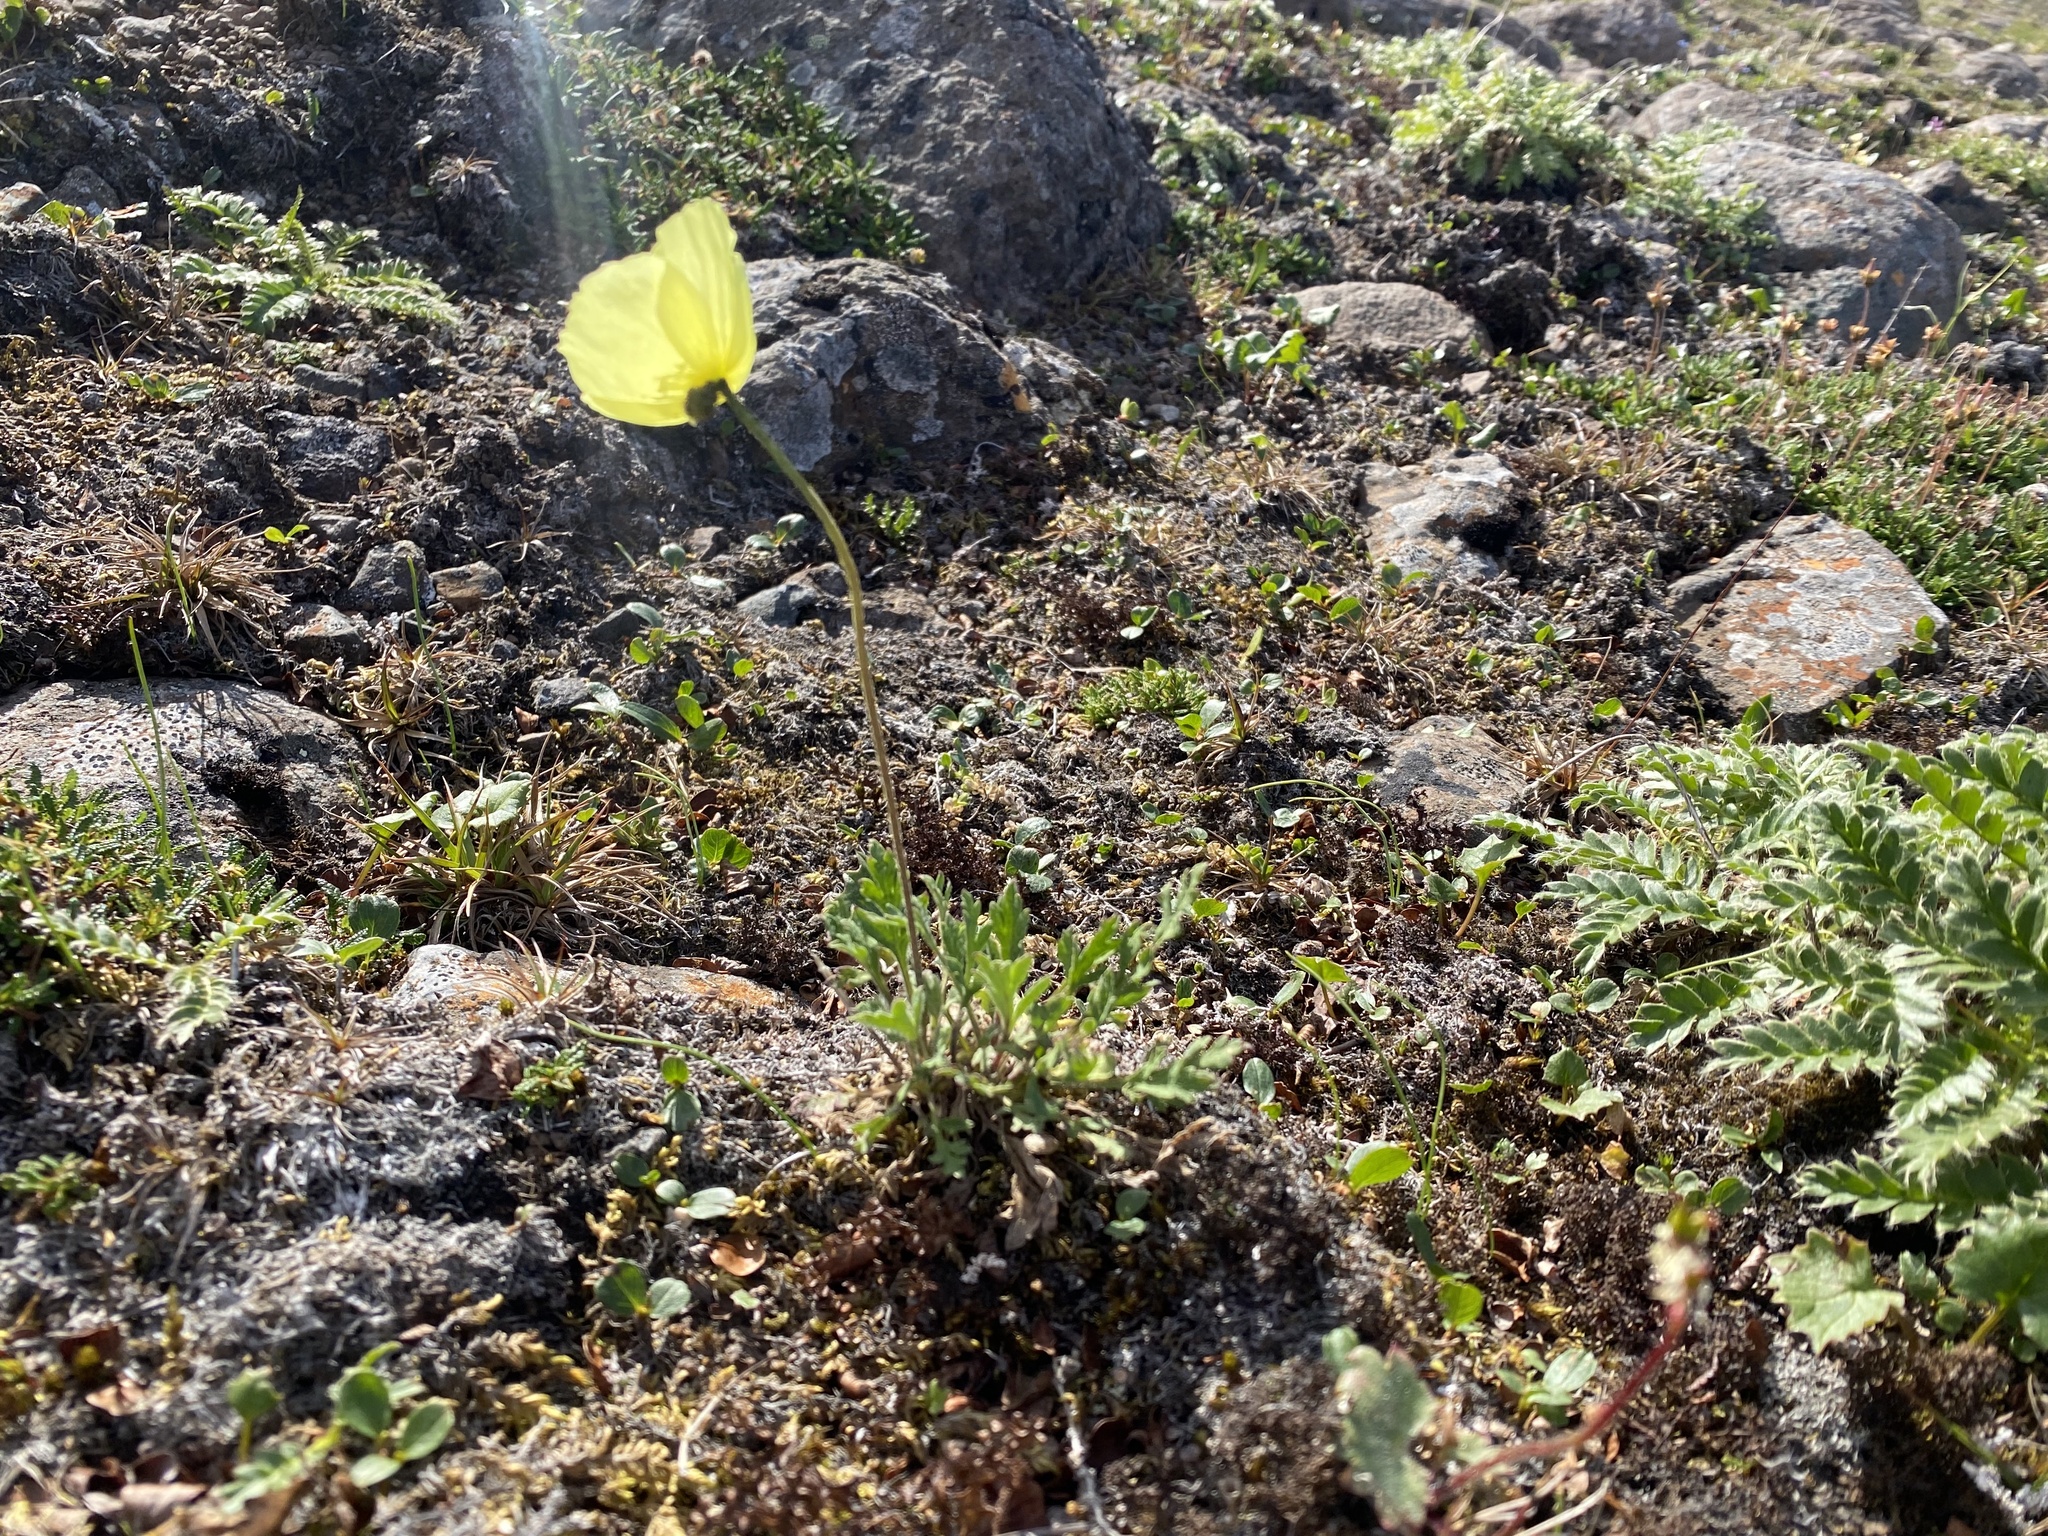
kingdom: Plantae
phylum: Tracheophyta
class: Magnoliopsida
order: Ranunculales
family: Papaveraceae
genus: Papaver
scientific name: Papaver pulvinatum
